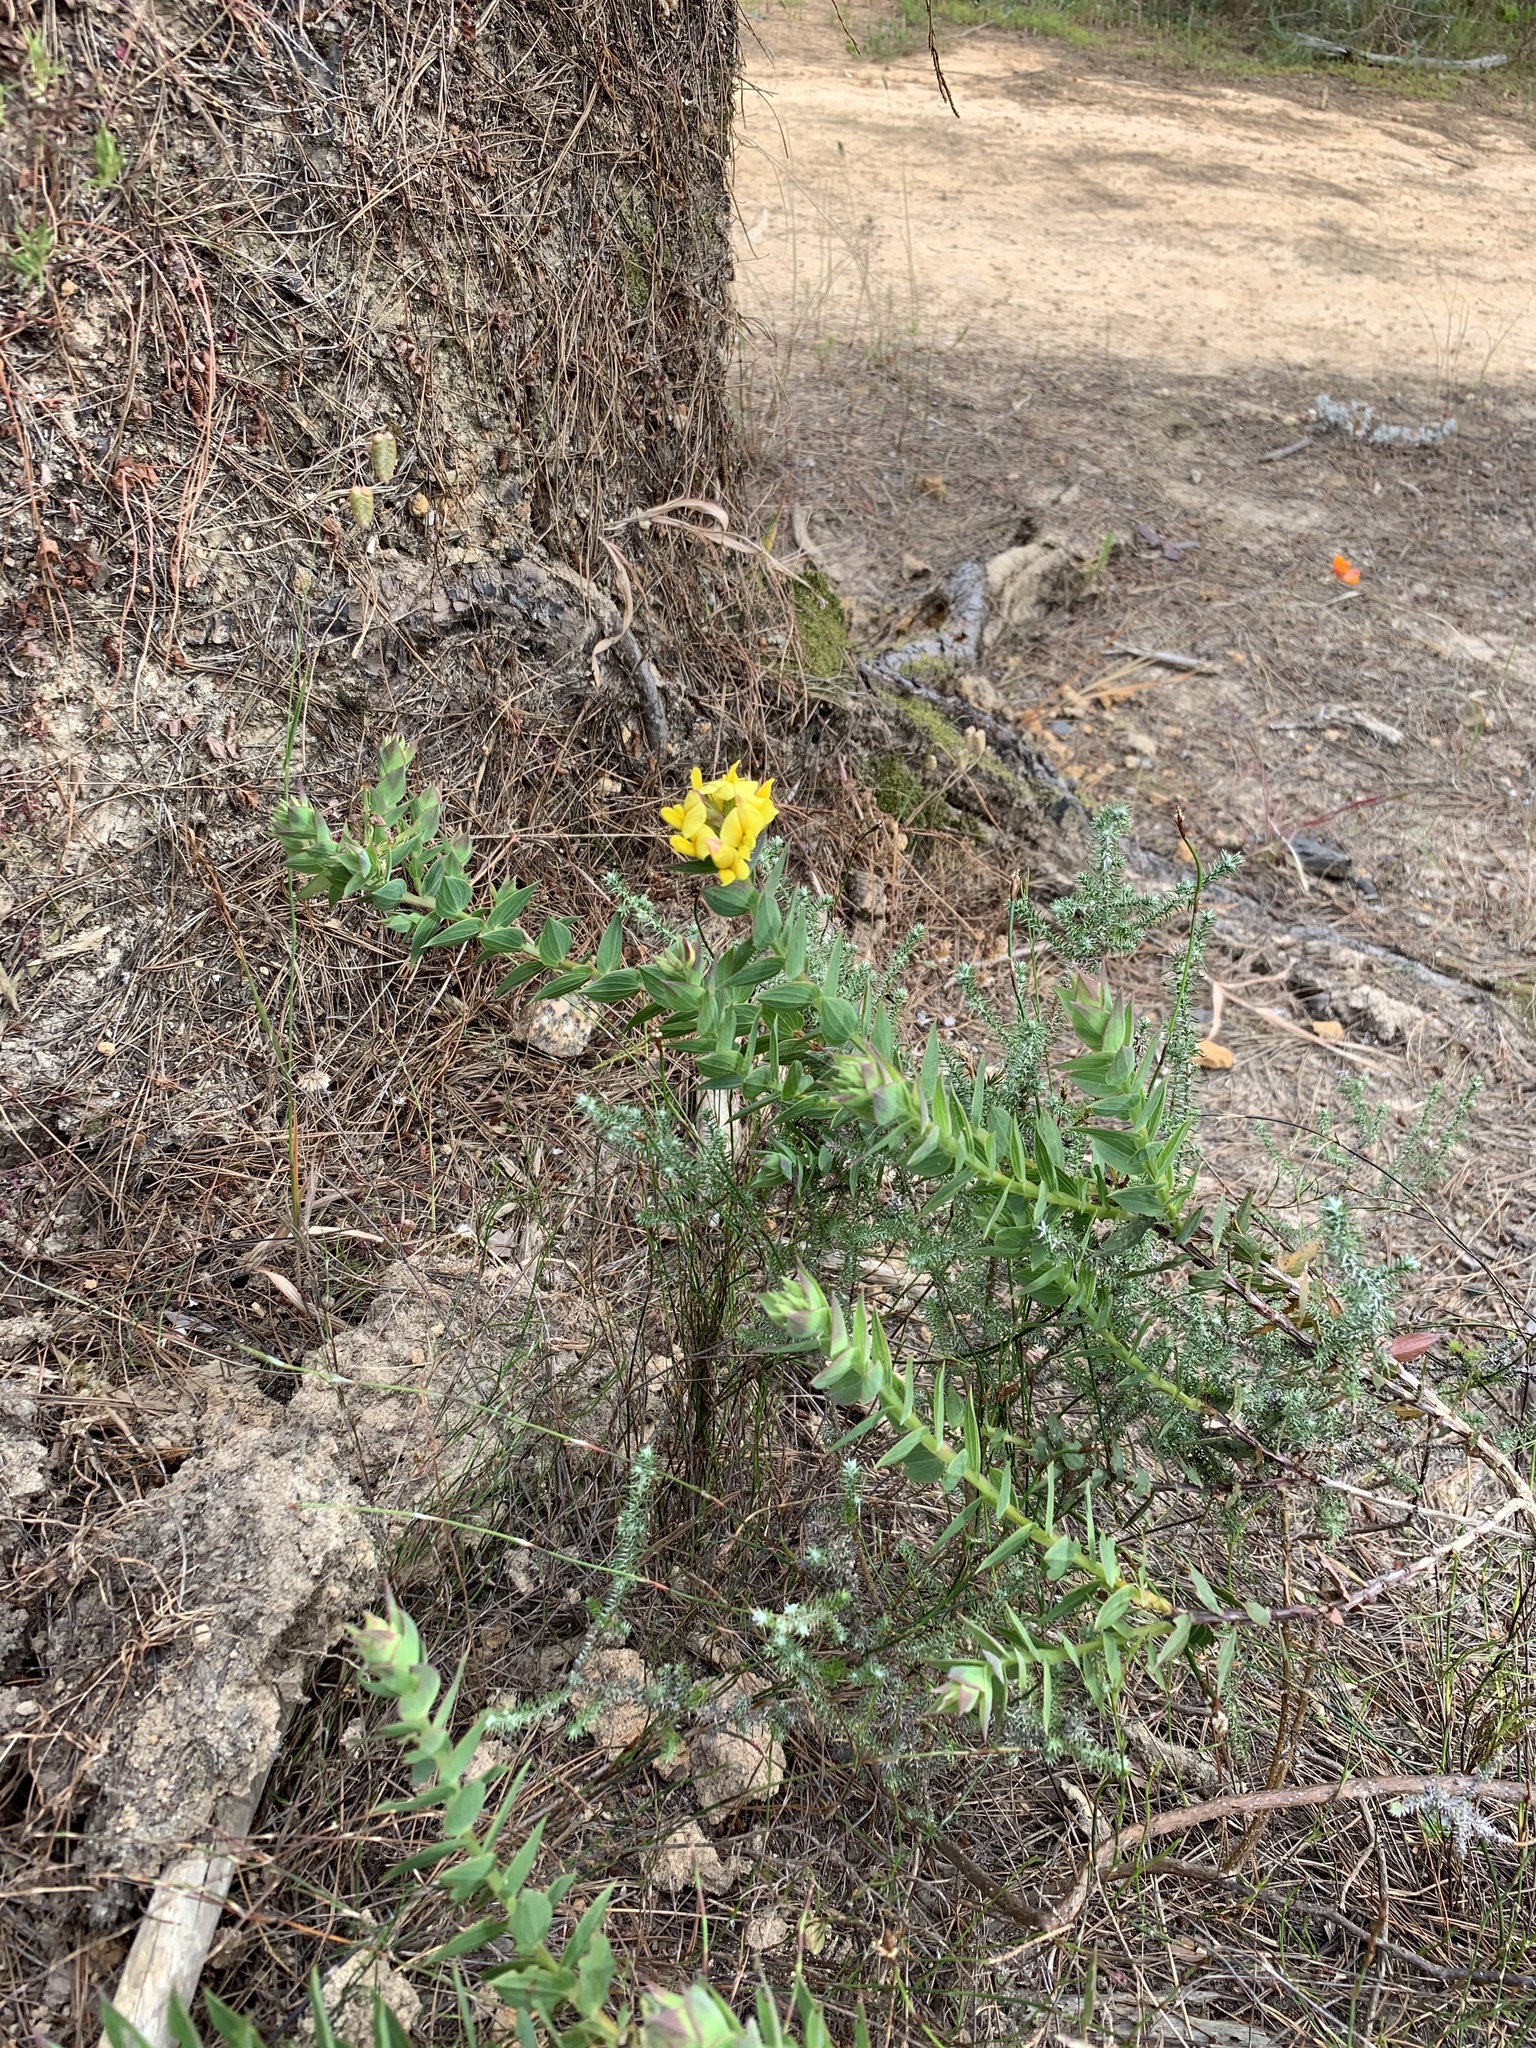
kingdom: Plantae
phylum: Tracheophyta
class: Magnoliopsida
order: Fabales
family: Fabaceae
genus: Aspalathus
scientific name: Aspalathus crenata
